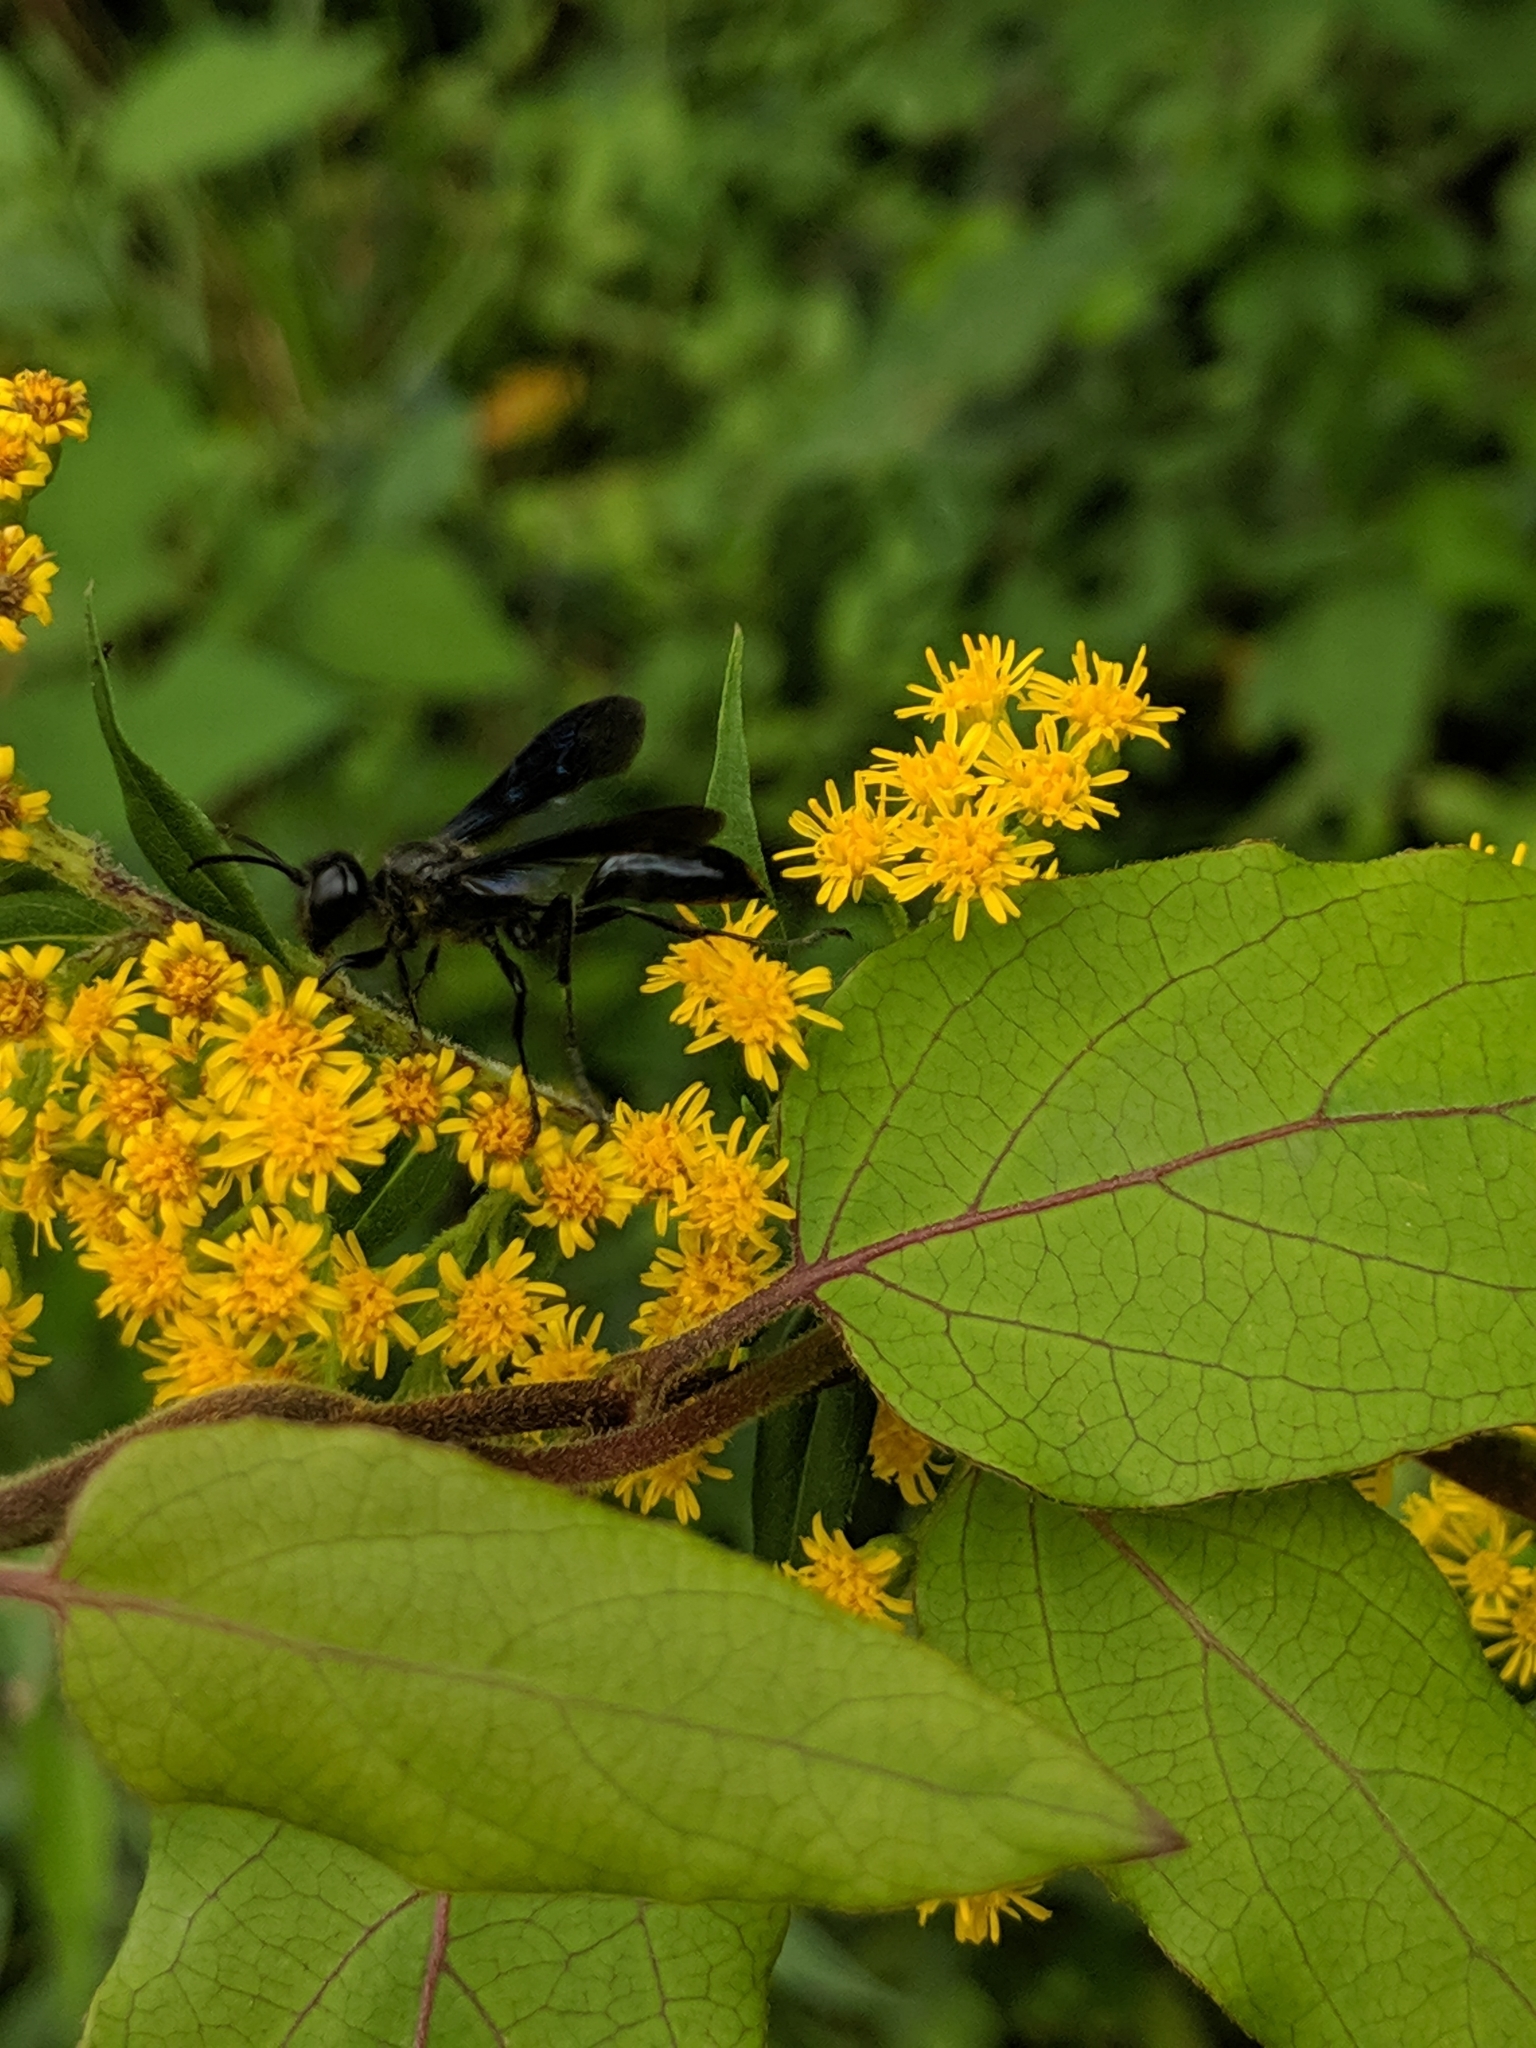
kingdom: Animalia
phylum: Arthropoda
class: Insecta
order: Hymenoptera
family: Sphecidae
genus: Isodontia
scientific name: Isodontia philadelphica
